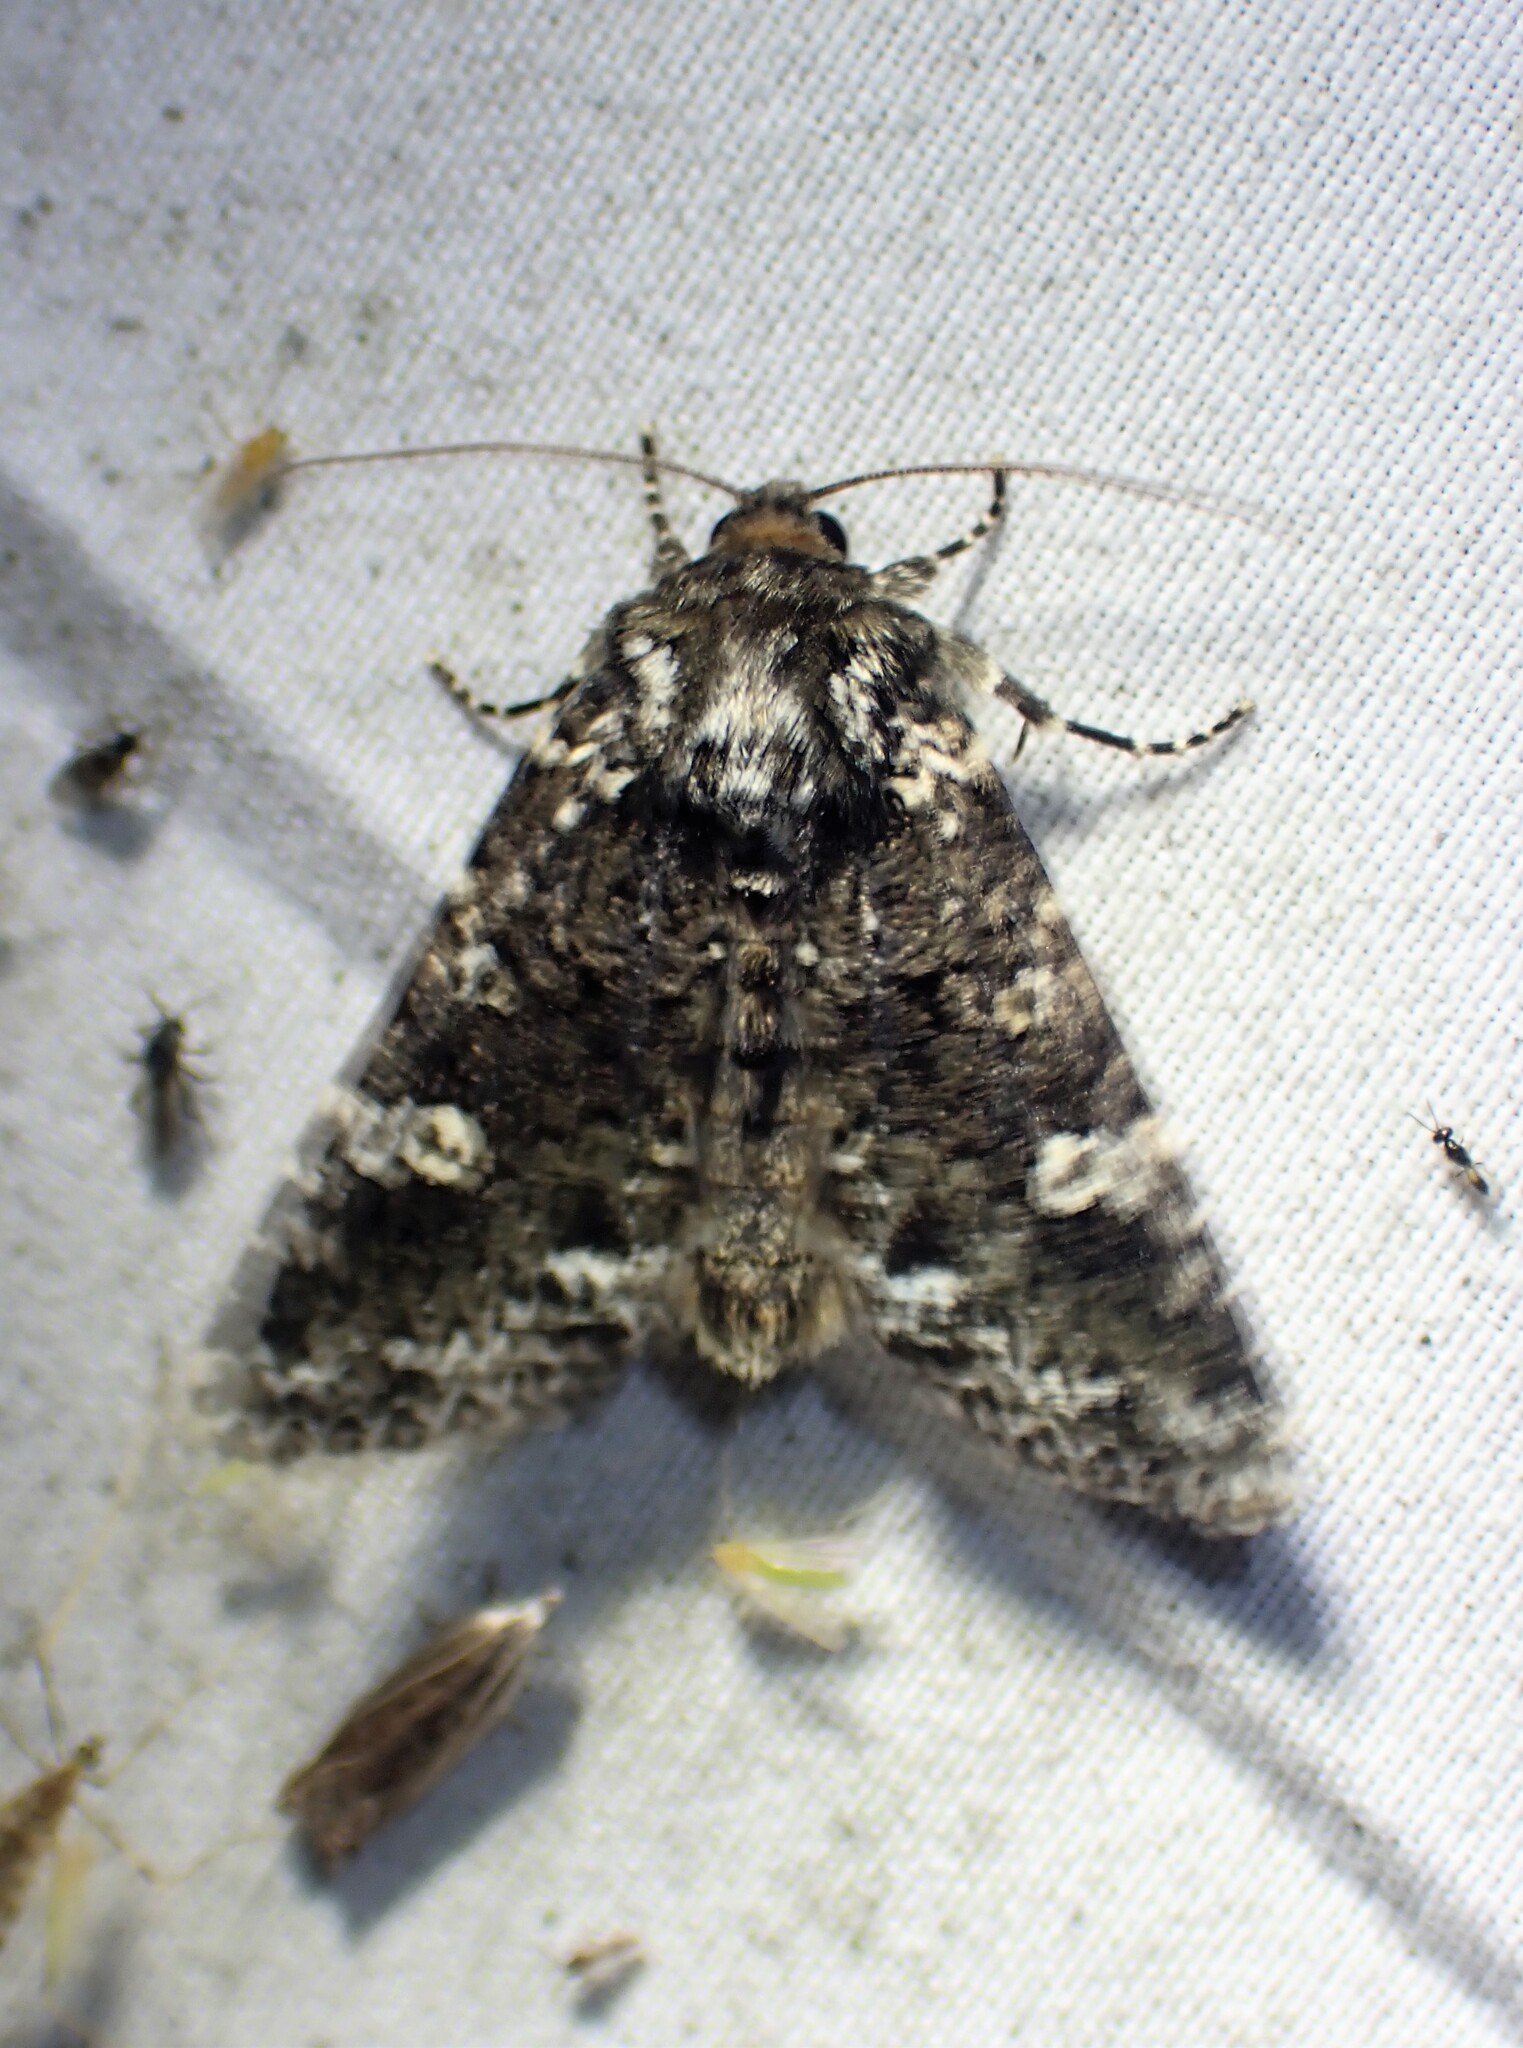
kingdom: Animalia
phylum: Arthropoda
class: Insecta
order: Lepidoptera
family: Noctuidae
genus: Melanchra
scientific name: Melanchra adjuncta
